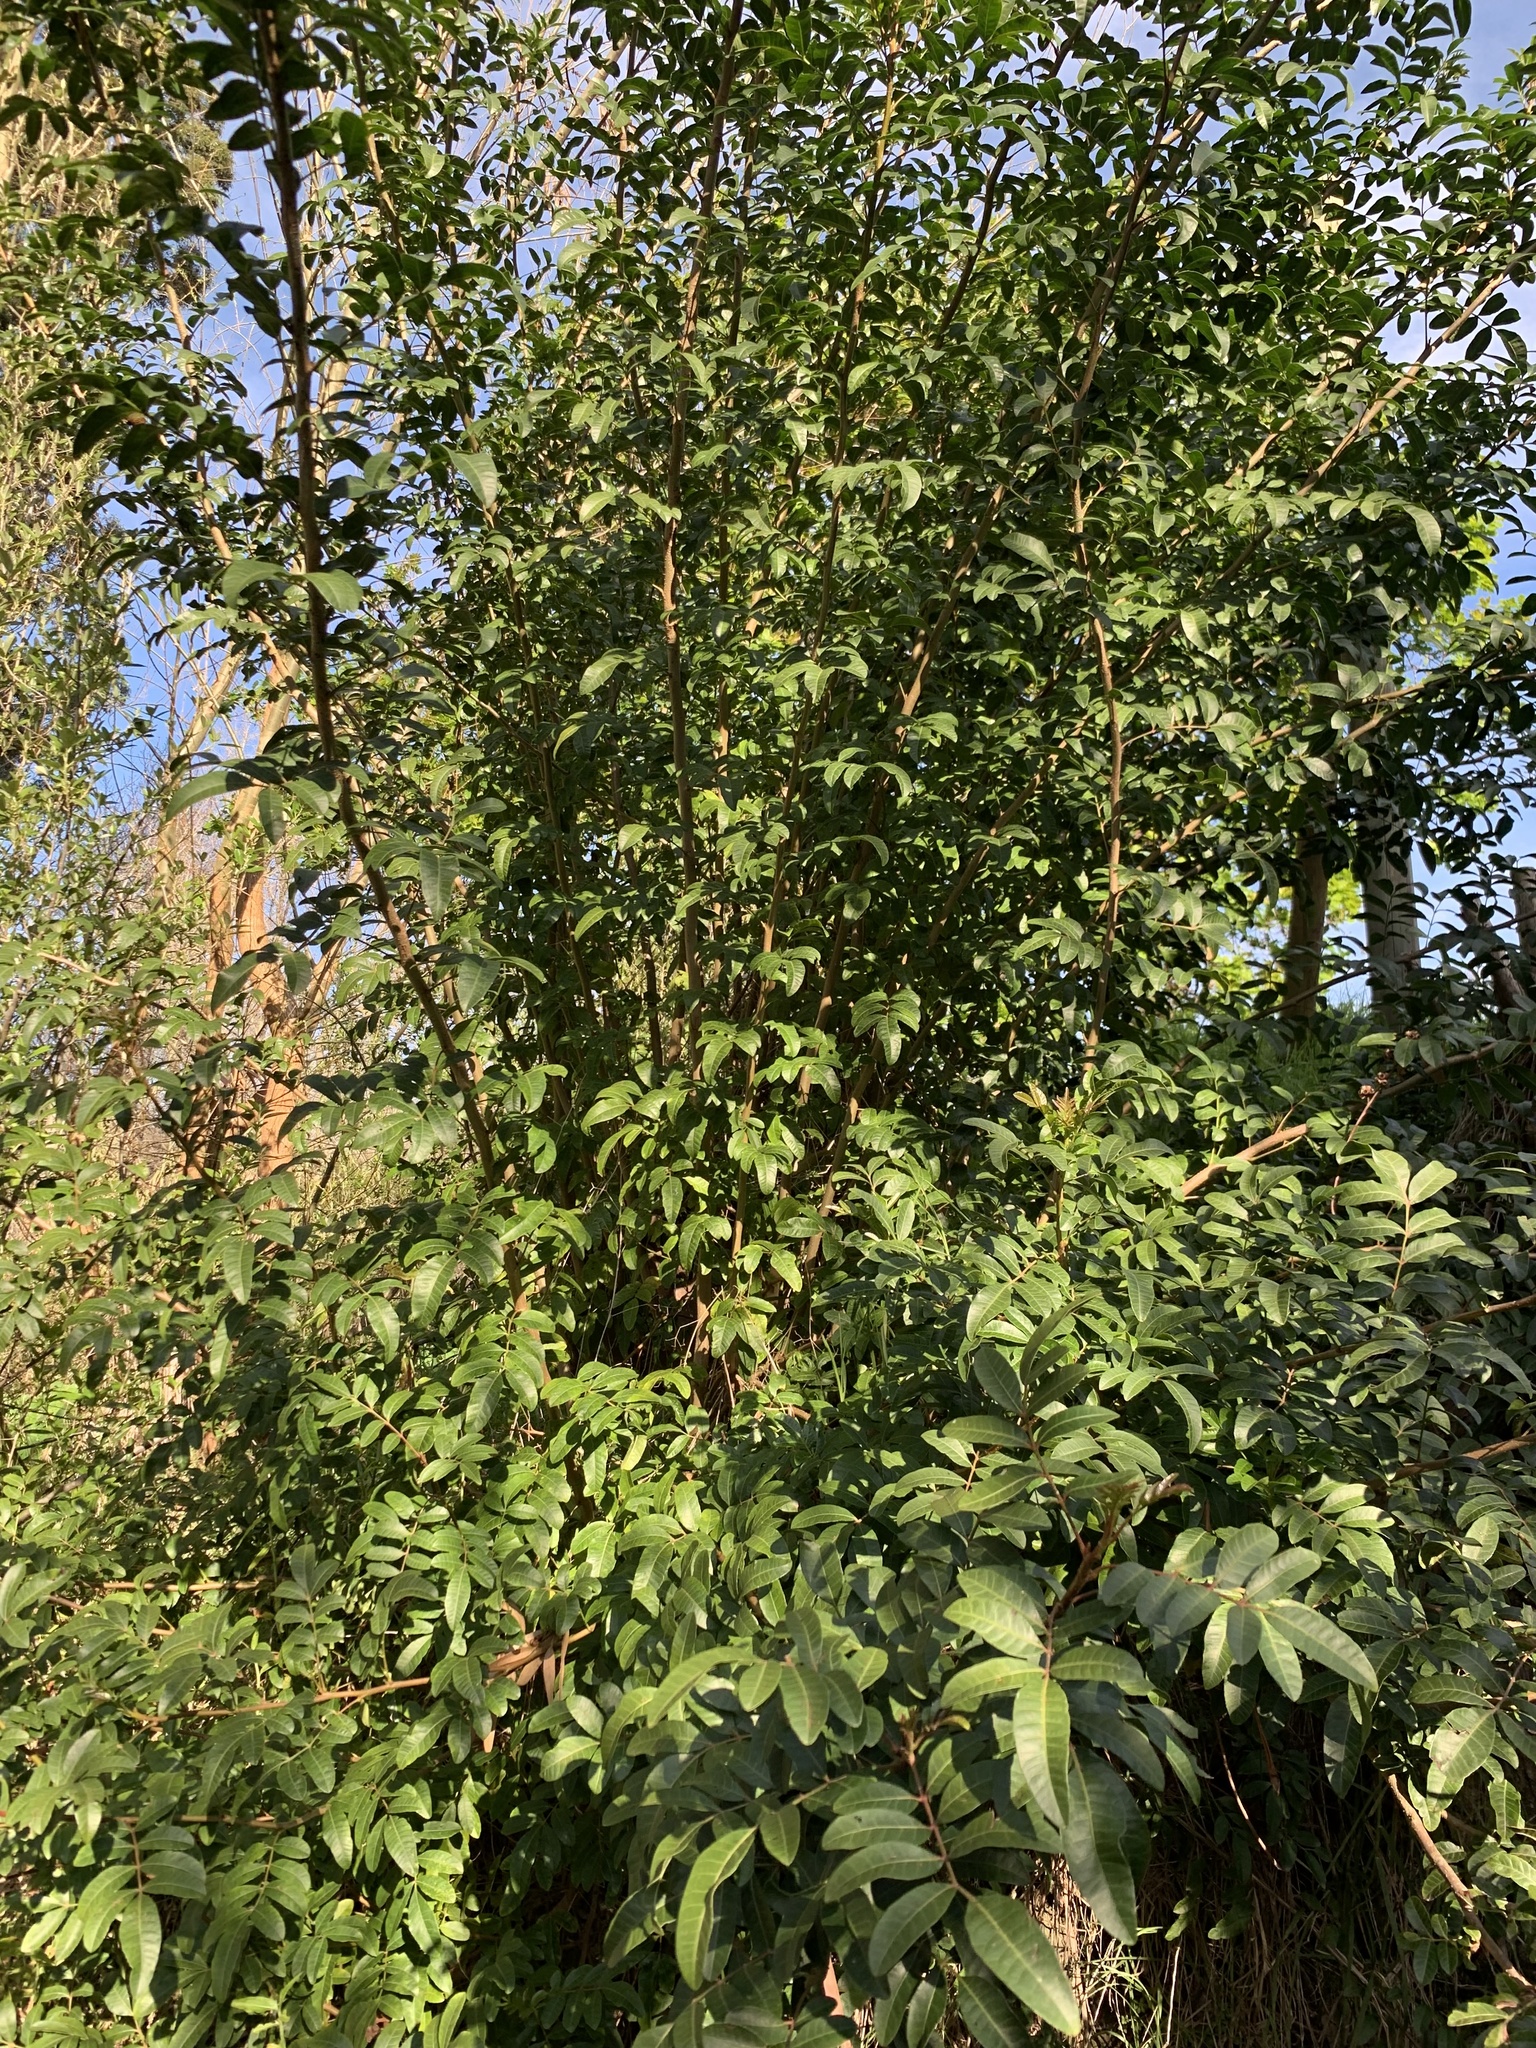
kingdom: Plantae
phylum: Tracheophyta
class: Magnoliopsida
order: Sapindales
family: Anacardiaceae
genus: Schinus
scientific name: Schinus terebinthifolia
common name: Brazilian peppertree
